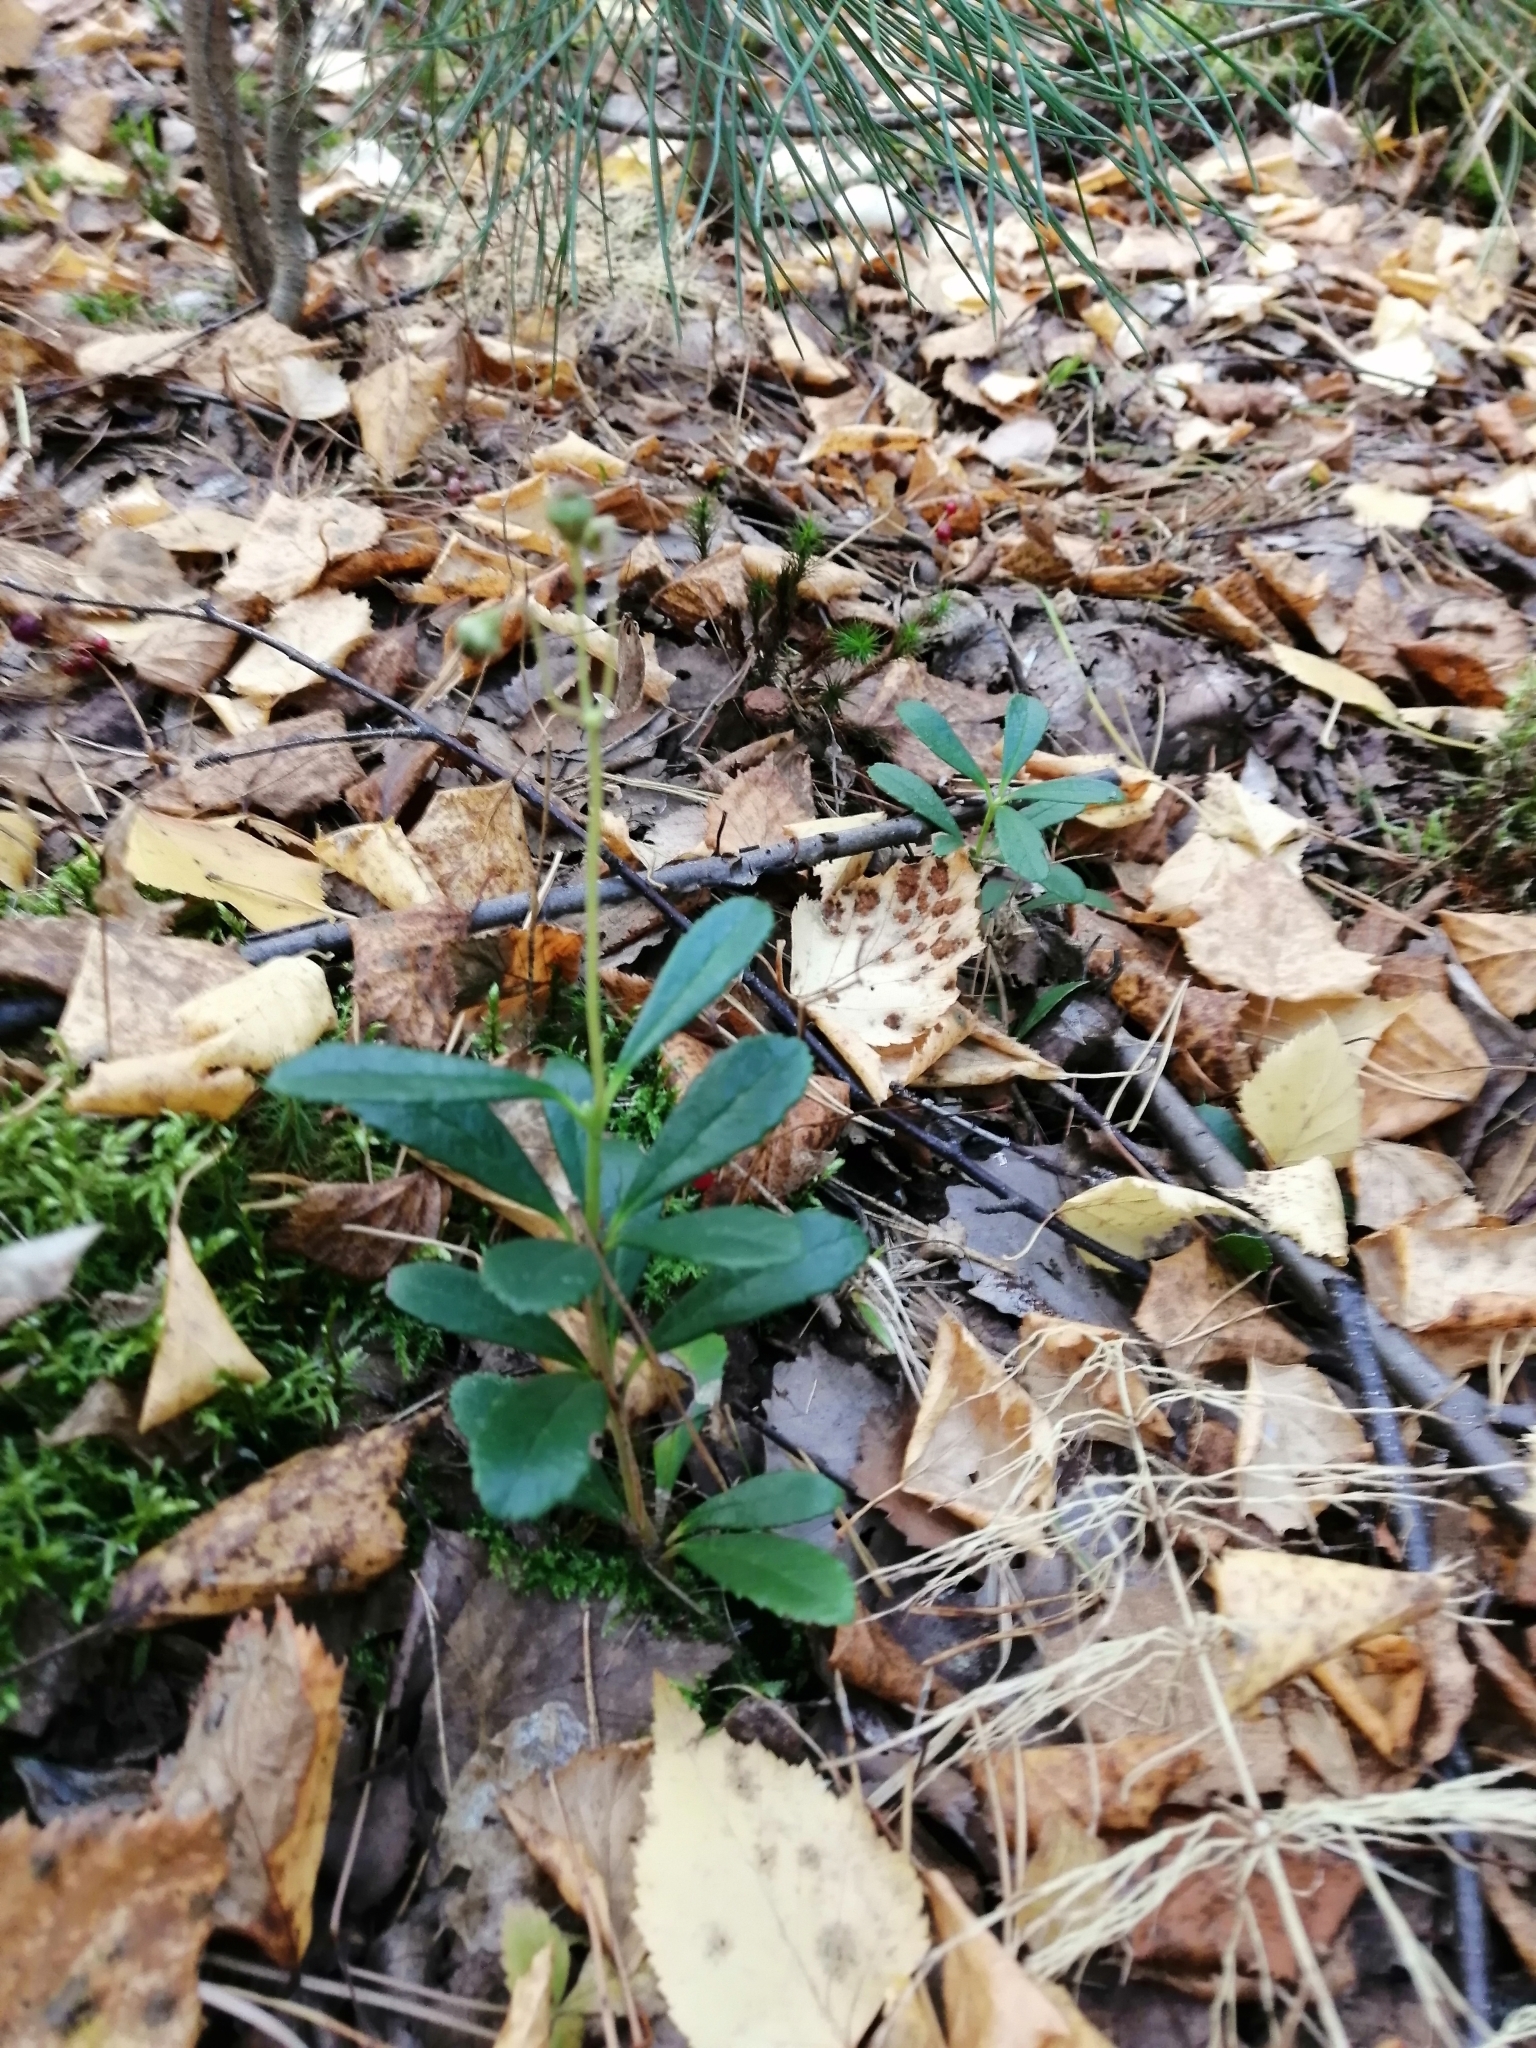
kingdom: Plantae
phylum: Tracheophyta
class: Magnoliopsida
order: Ericales
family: Ericaceae
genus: Chimaphila
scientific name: Chimaphila umbellata
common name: Pipsissewa
